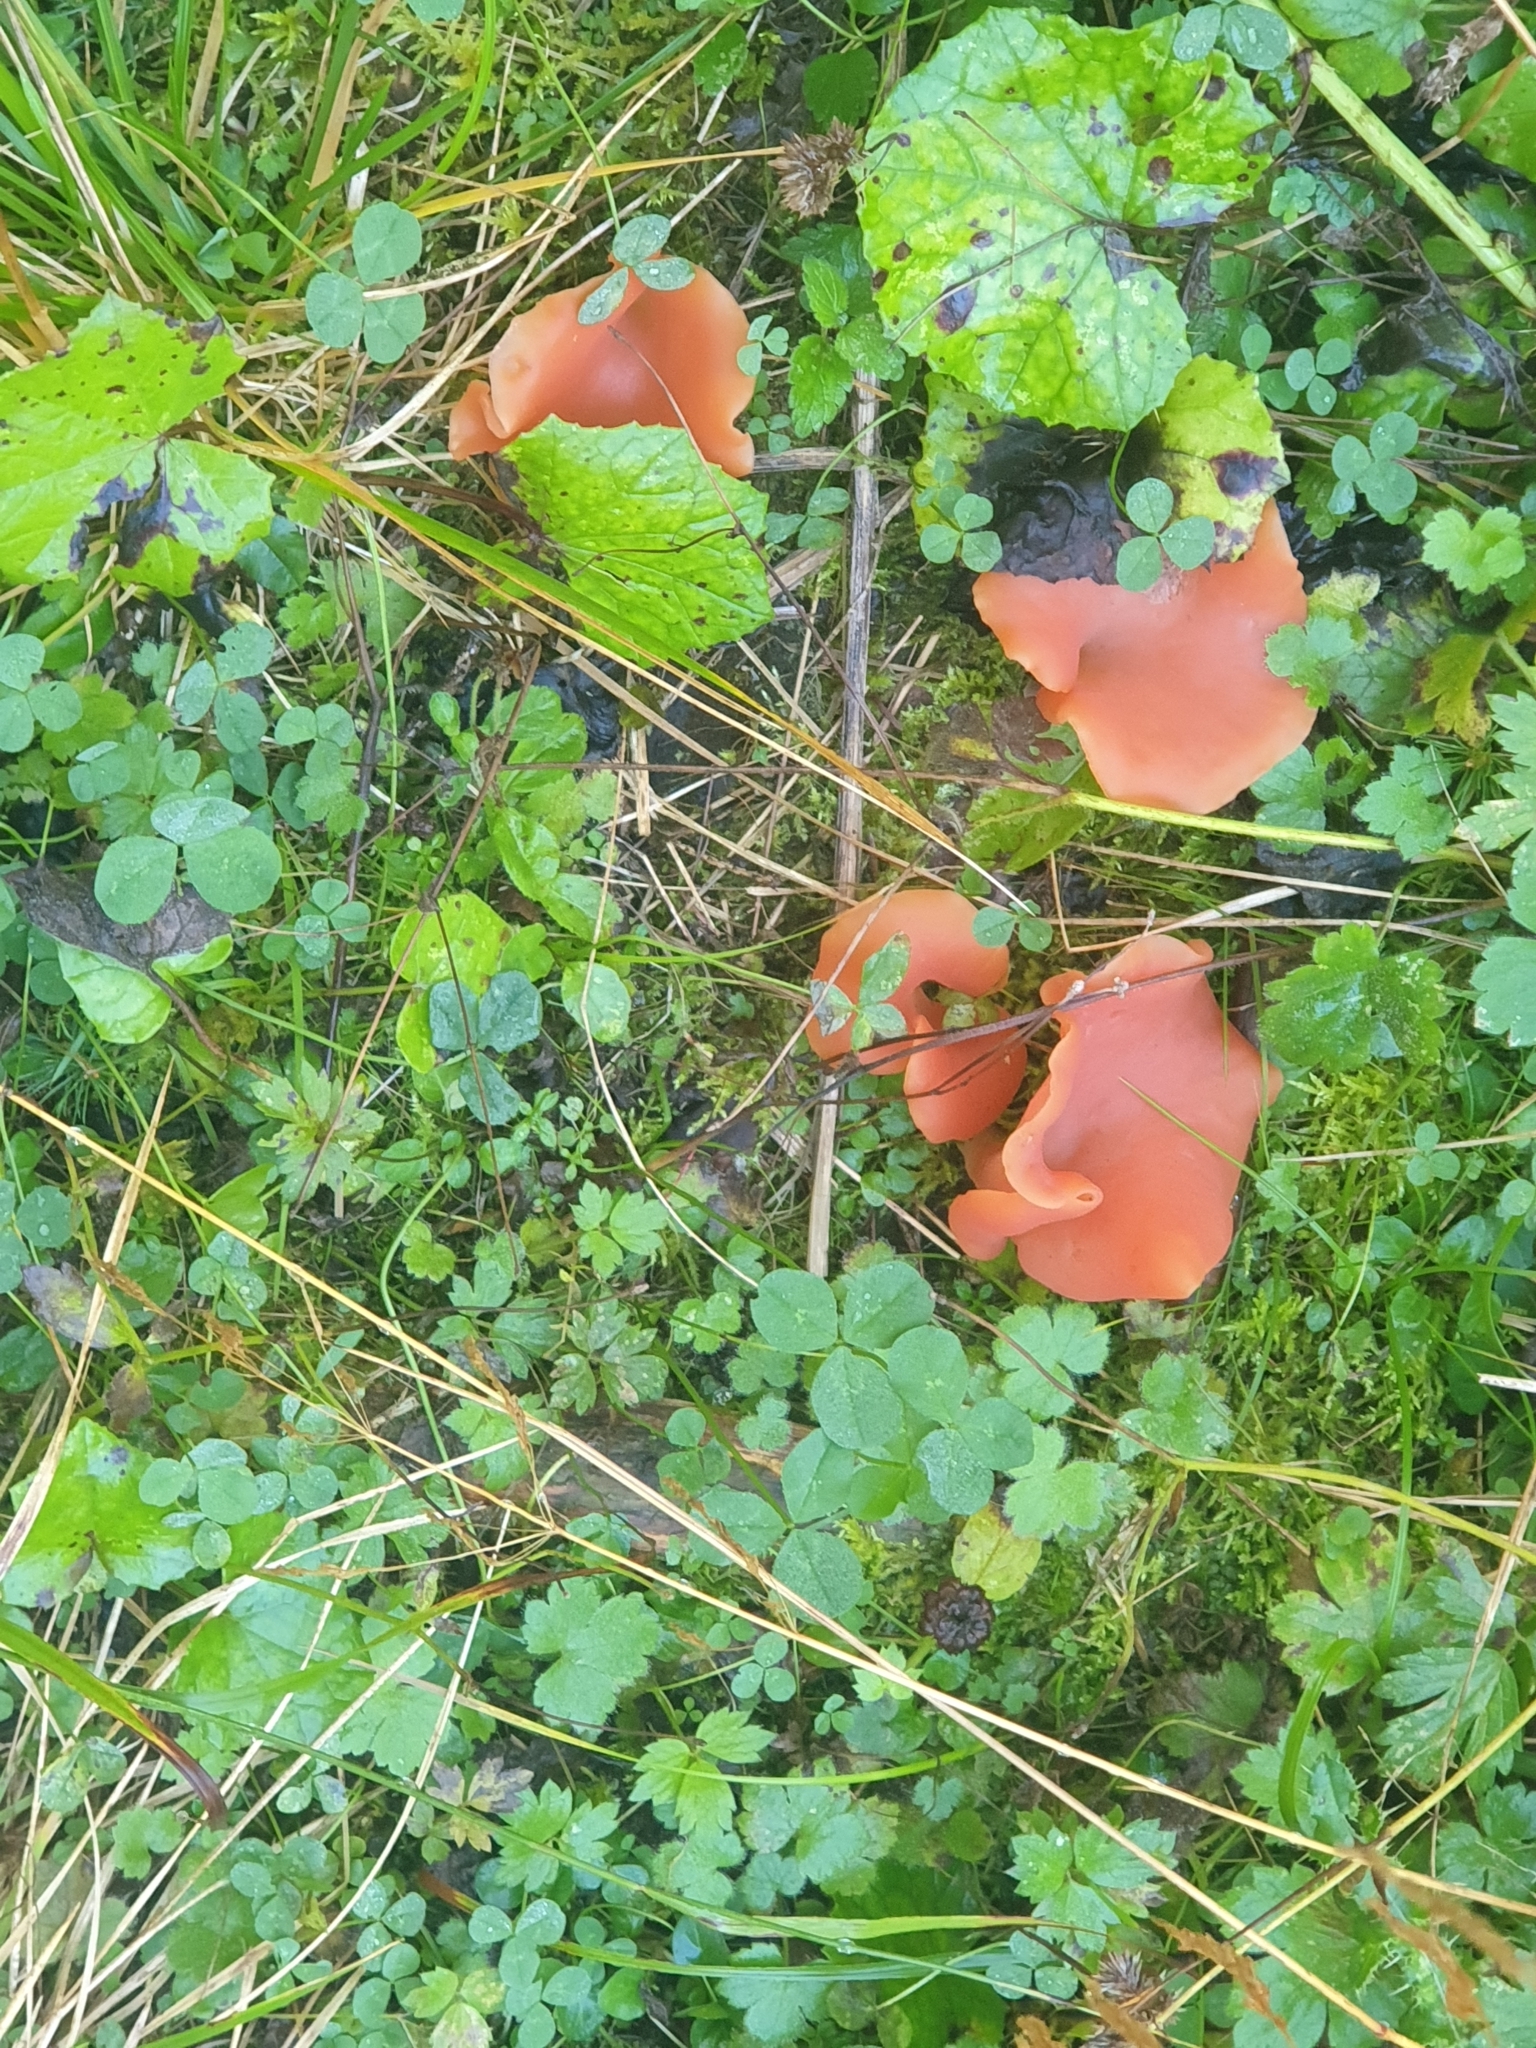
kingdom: Fungi
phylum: Basidiomycota
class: Agaricomycetes
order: Auriculariales
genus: Guepinia
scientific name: Guepinia helvelloides
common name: Salmon salad
